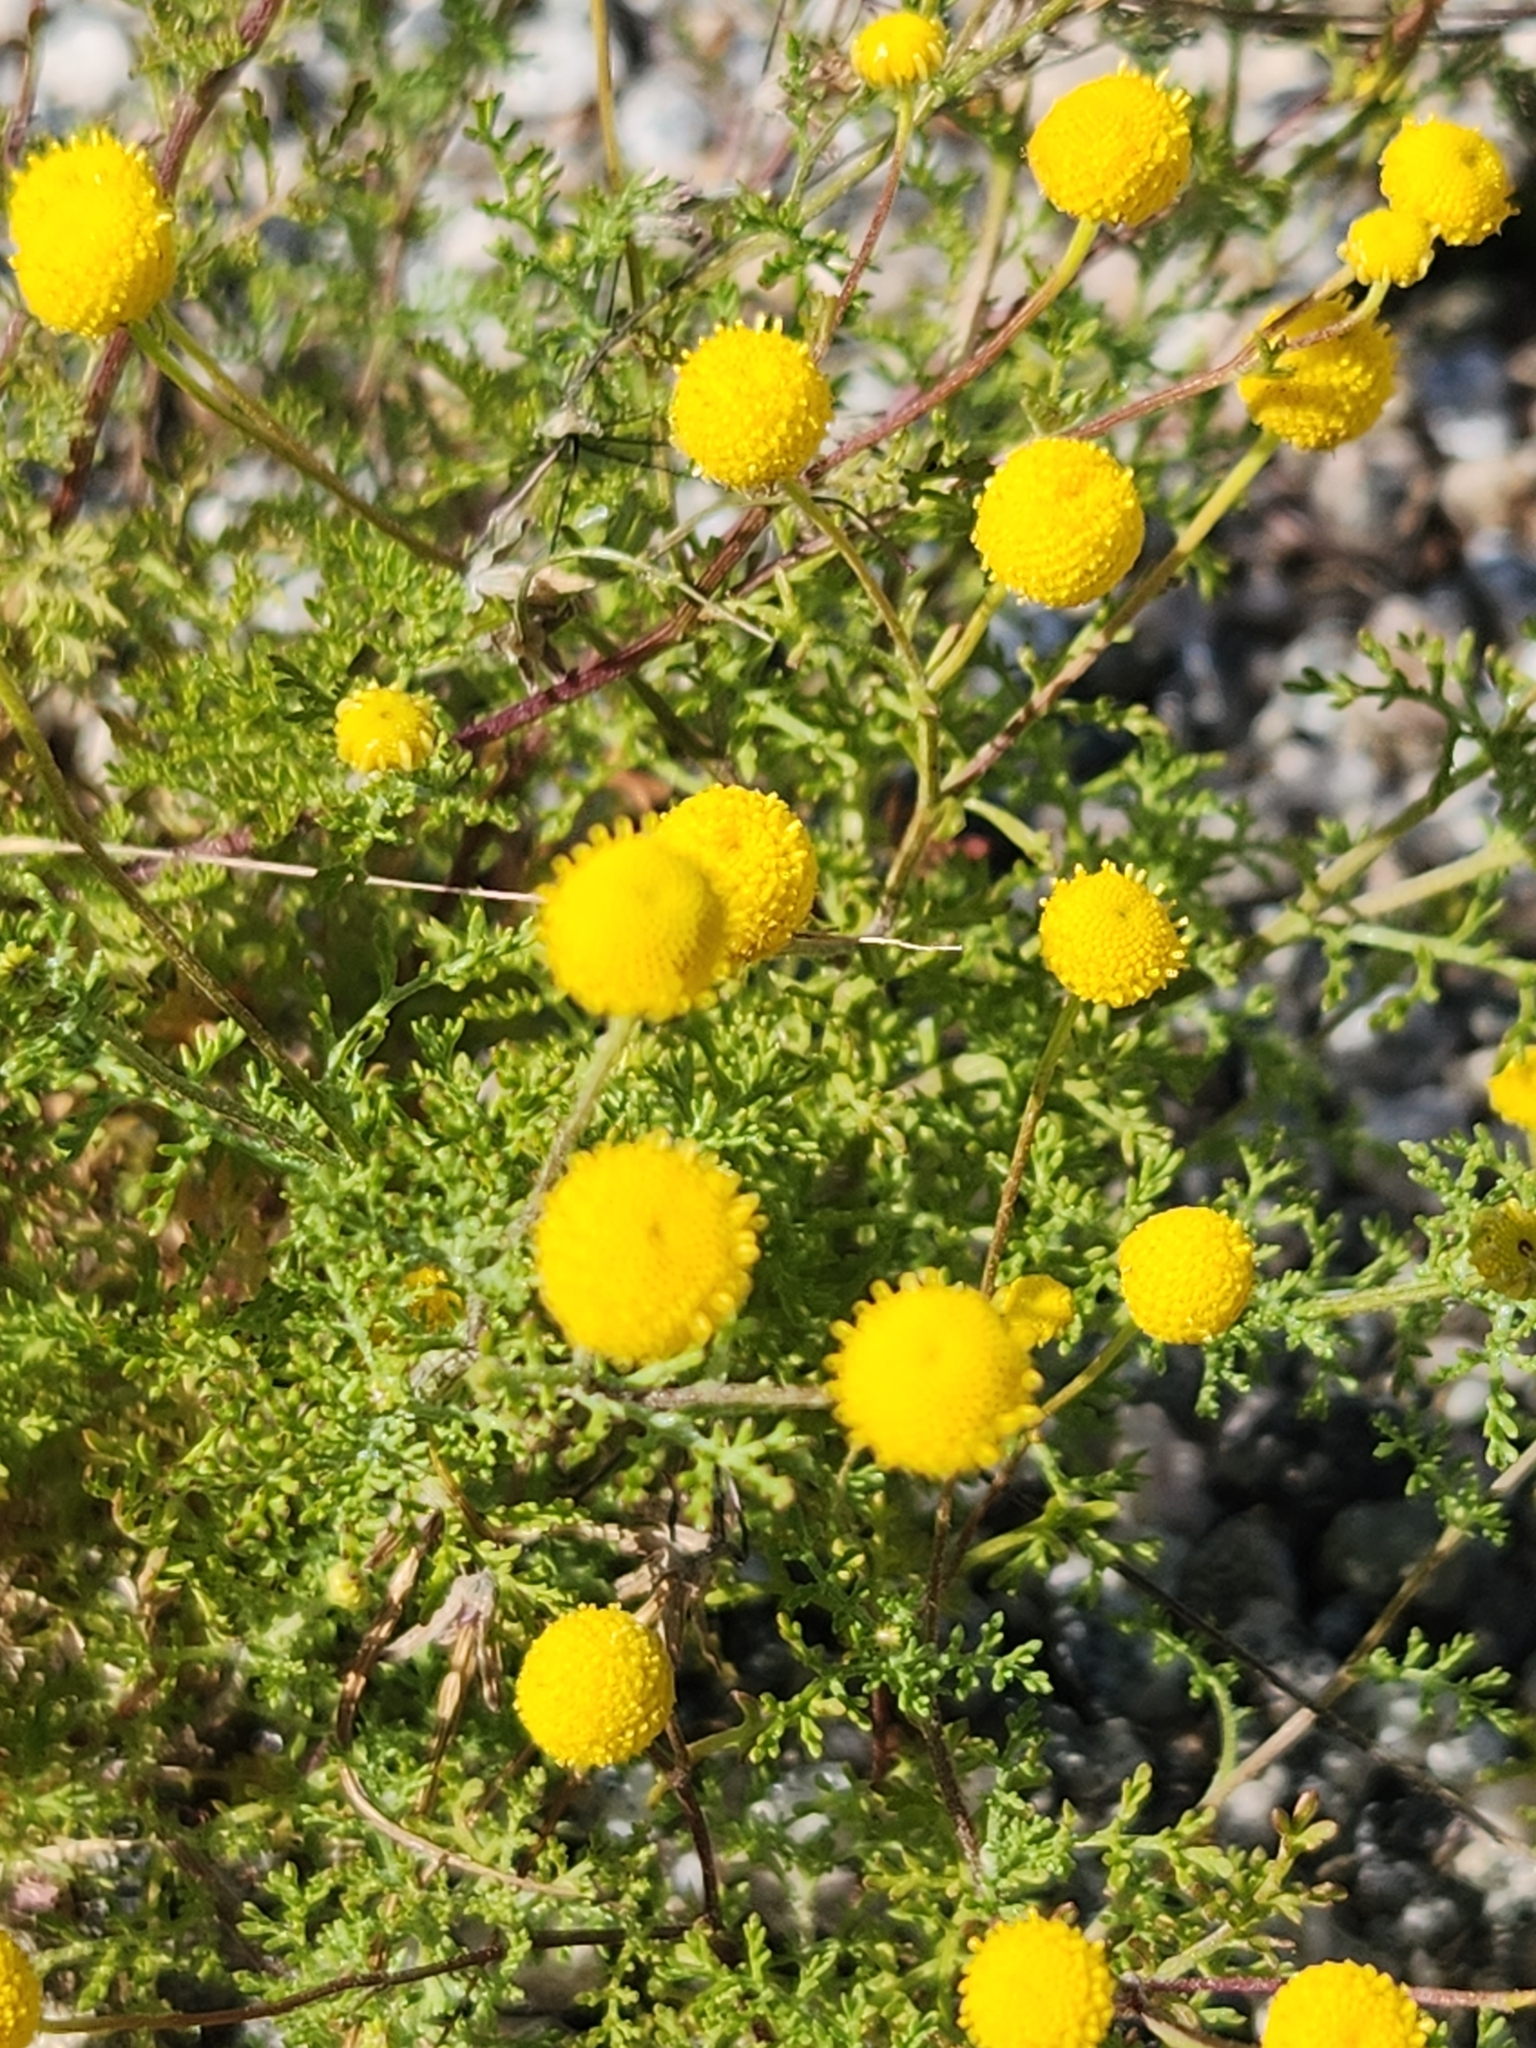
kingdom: Plantae
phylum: Tracheophyta
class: Magnoliopsida
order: Asterales
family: Asteraceae
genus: Oncosiphon
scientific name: Oncosiphon pilulifer
